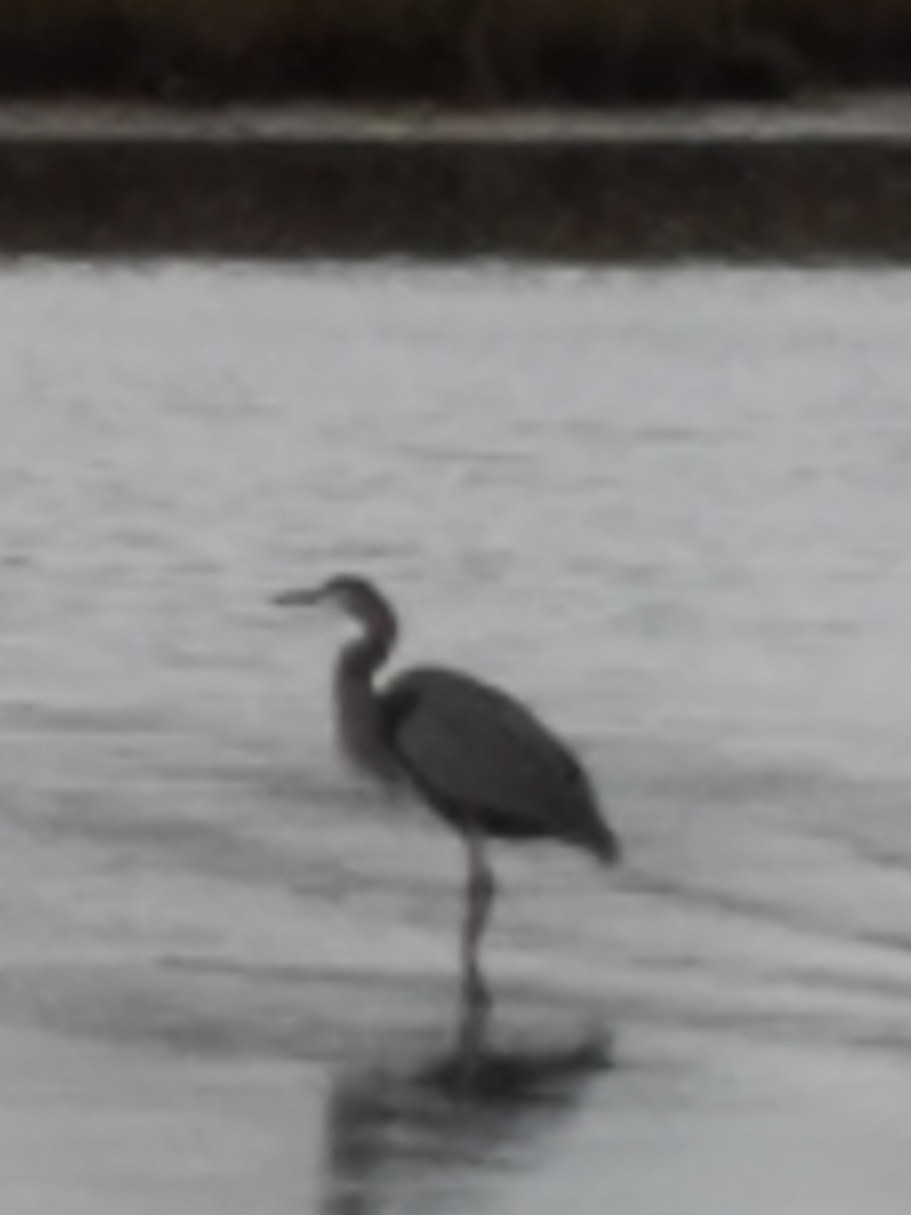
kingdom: Animalia
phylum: Chordata
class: Aves
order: Pelecaniformes
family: Ardeidae
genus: Ardea
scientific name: Ardea herodias
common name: Great blue heron
